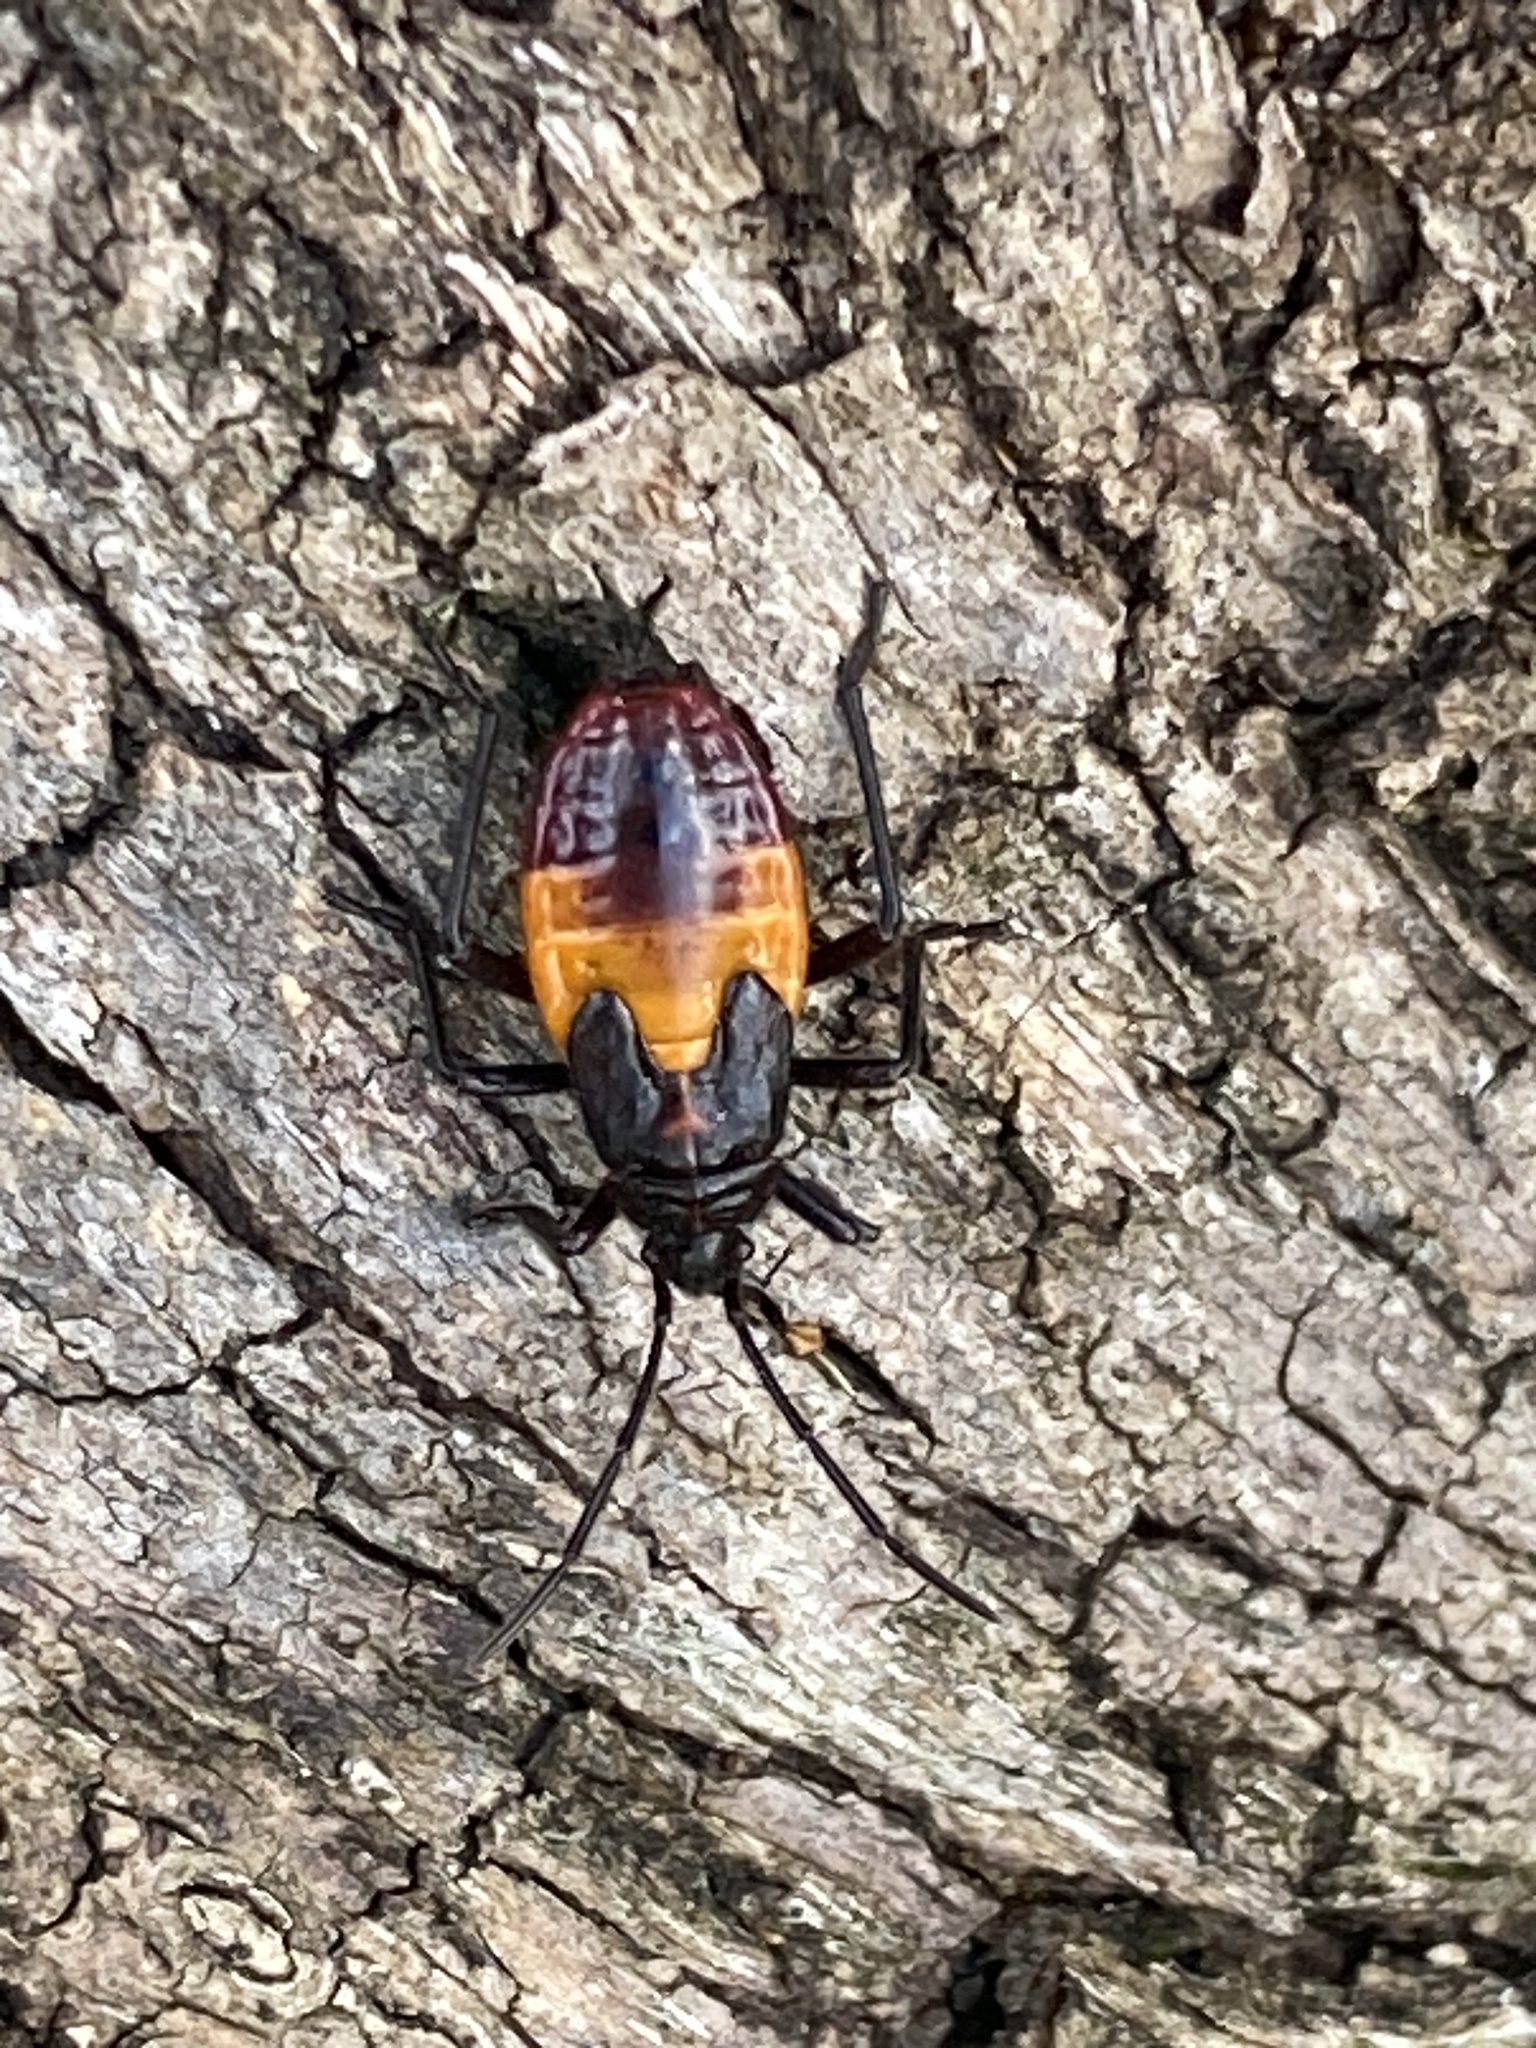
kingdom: Animalia
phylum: Arthropoda
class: Insecta
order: Hemiptera
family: Lygaeidae
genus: Oncopeltus
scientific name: Oncopeltus sordidus
